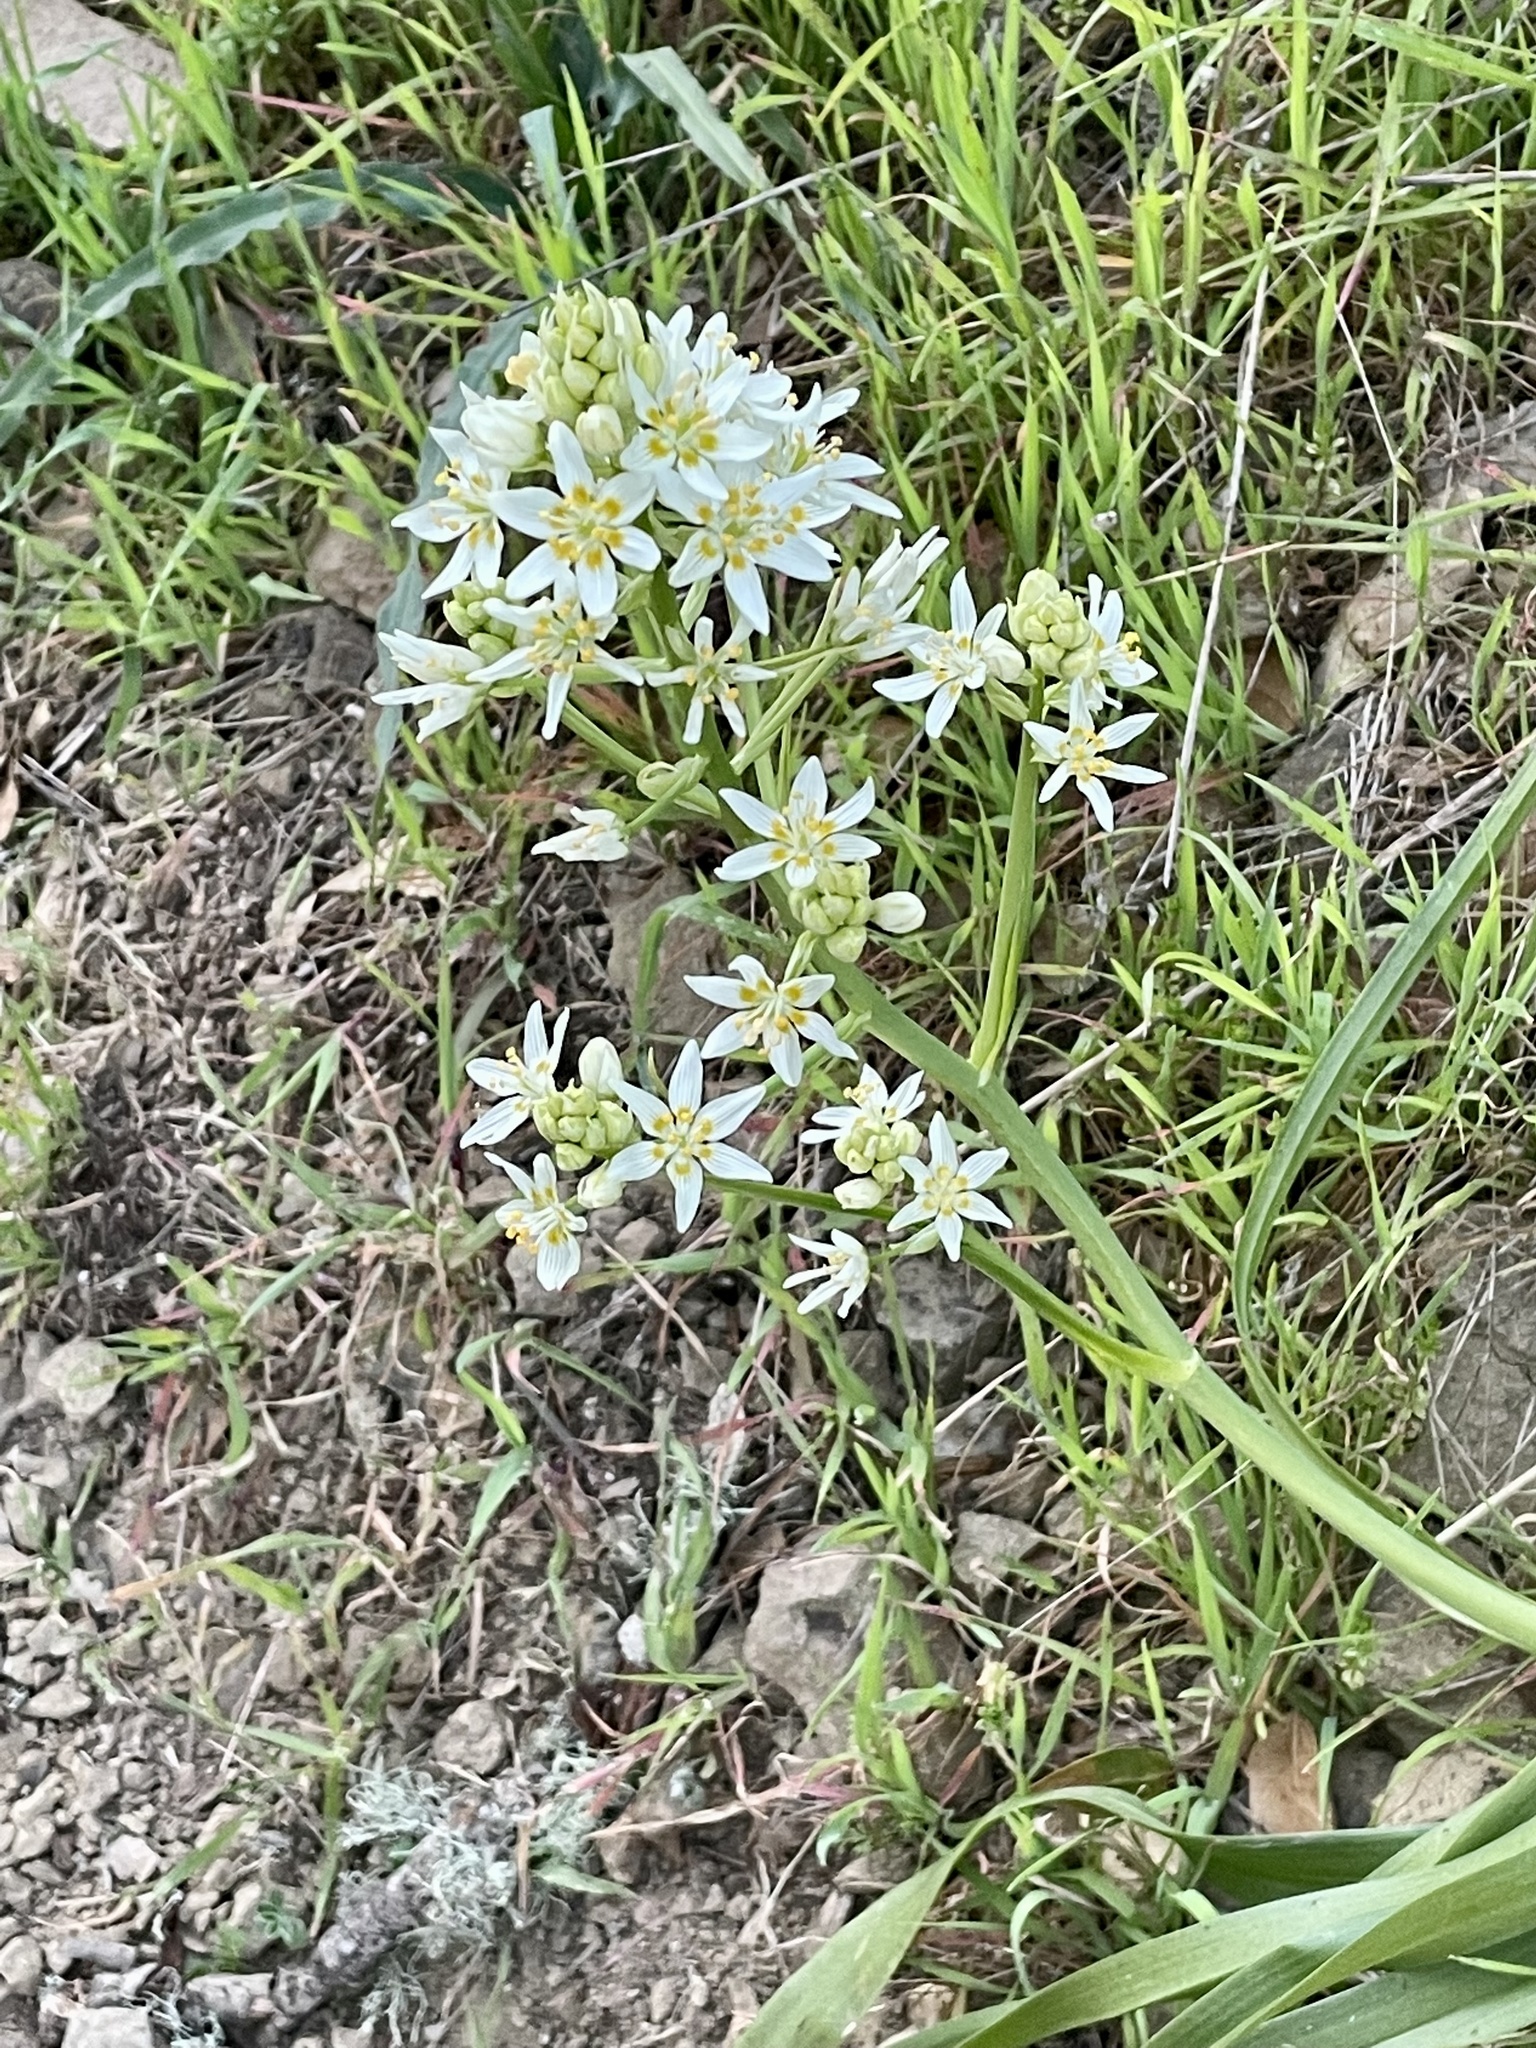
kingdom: Plantae
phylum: Tracheophyta
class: Liliopsida
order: Liliales
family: Melanthiaceae
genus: Toxicoscordion
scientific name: Toxicoscordion fremontii
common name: Fremont's death camas
